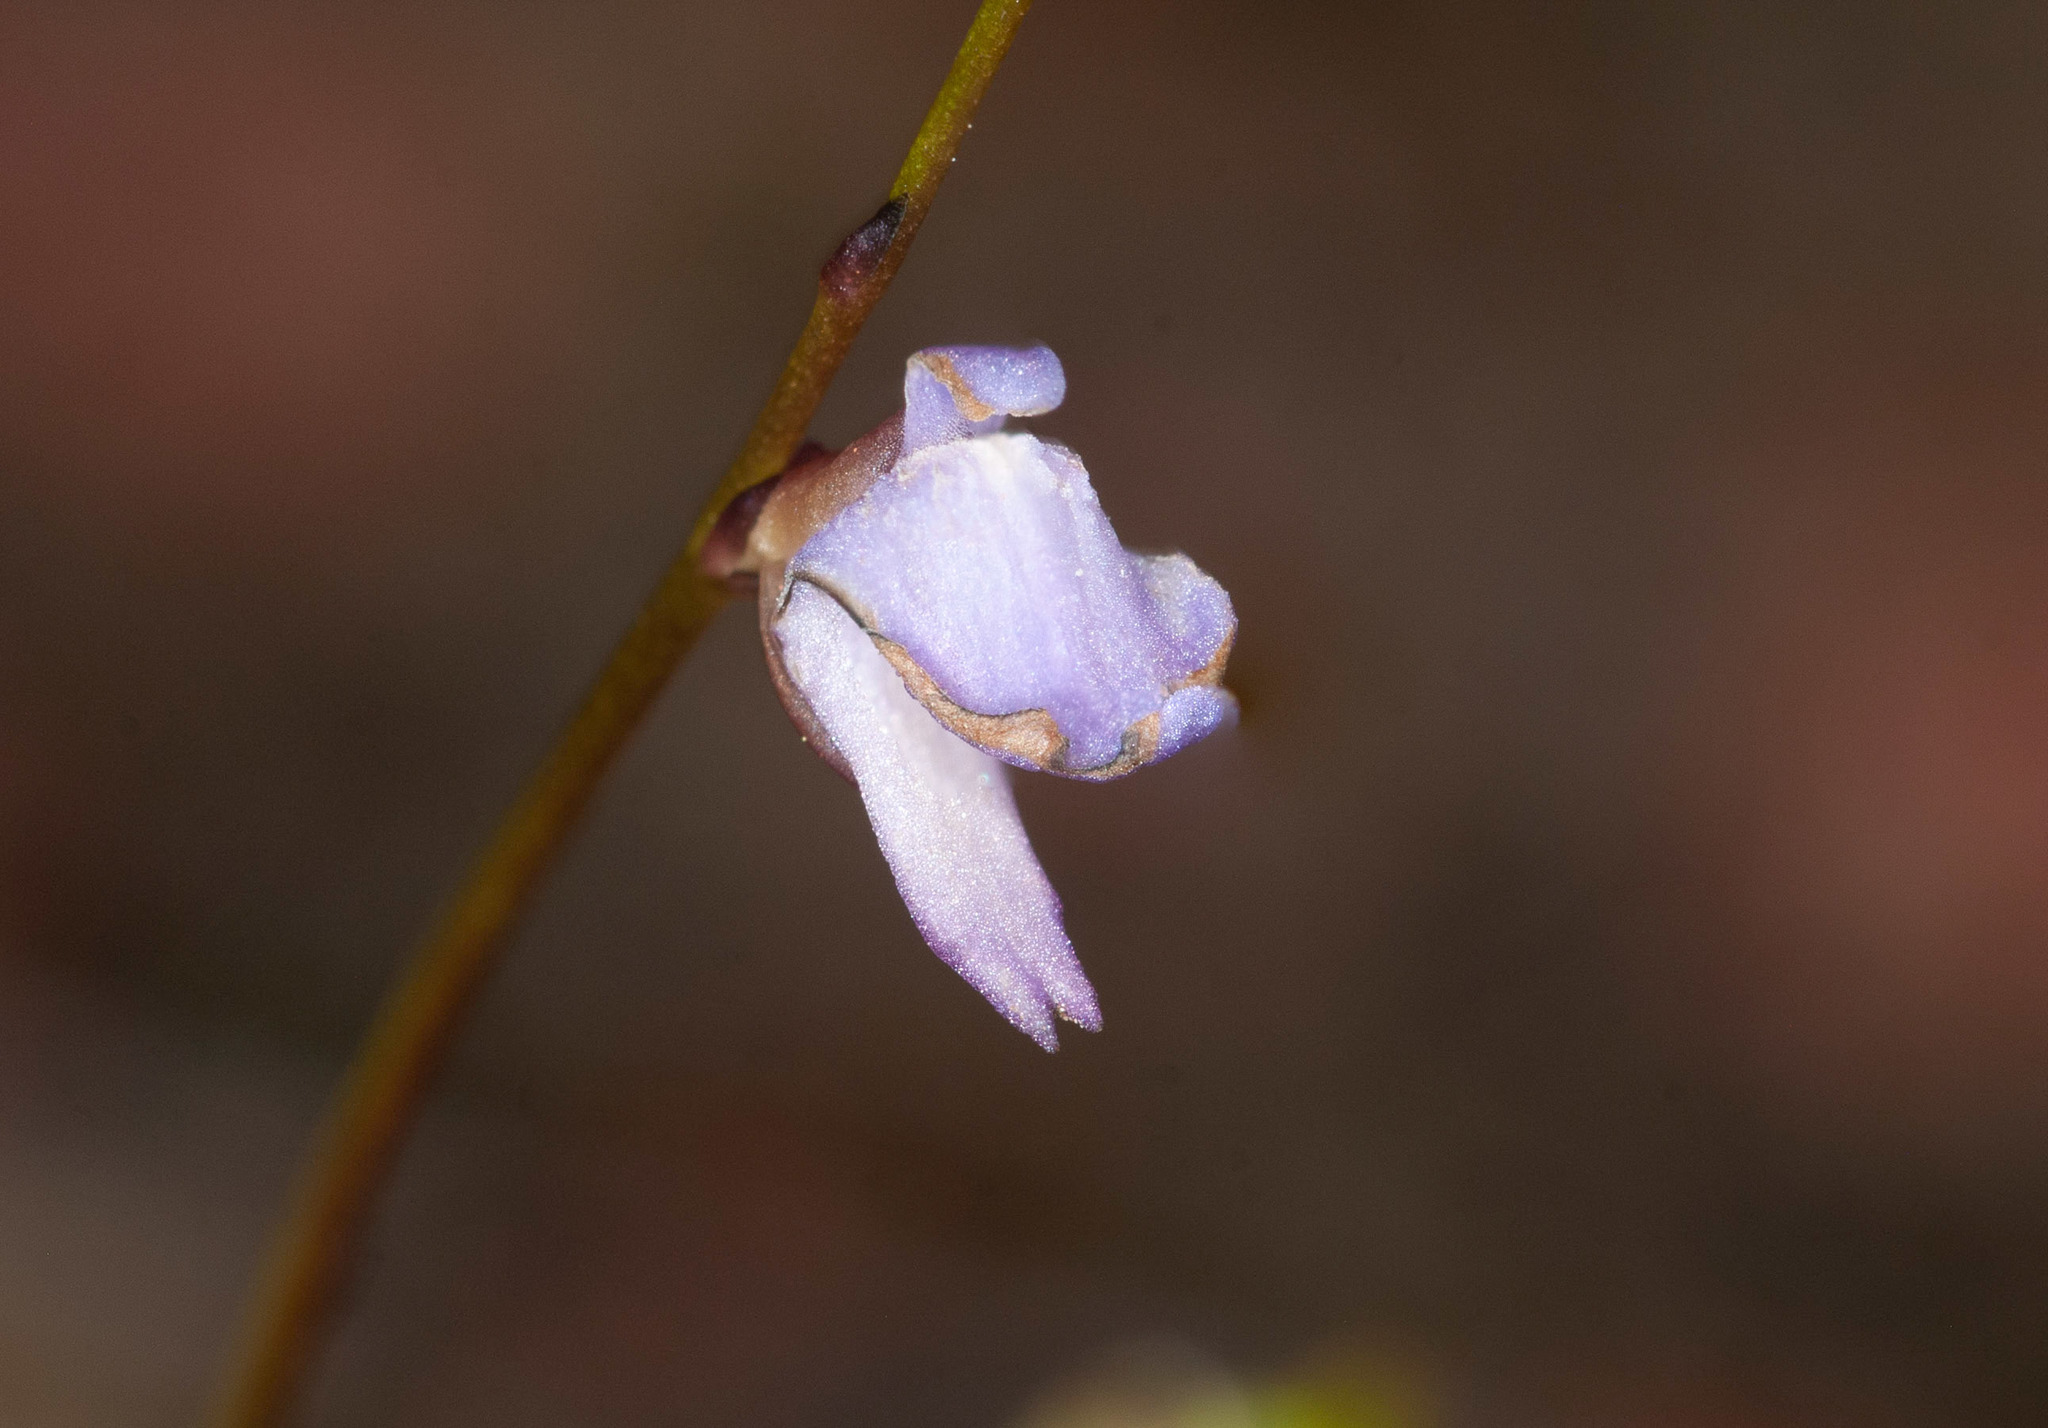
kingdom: Plantae
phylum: Tracheophyta
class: Magnoliopsida
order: Lamiales
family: Lentibulariaceae
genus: Utricularia
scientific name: Utricularia lateriflora
